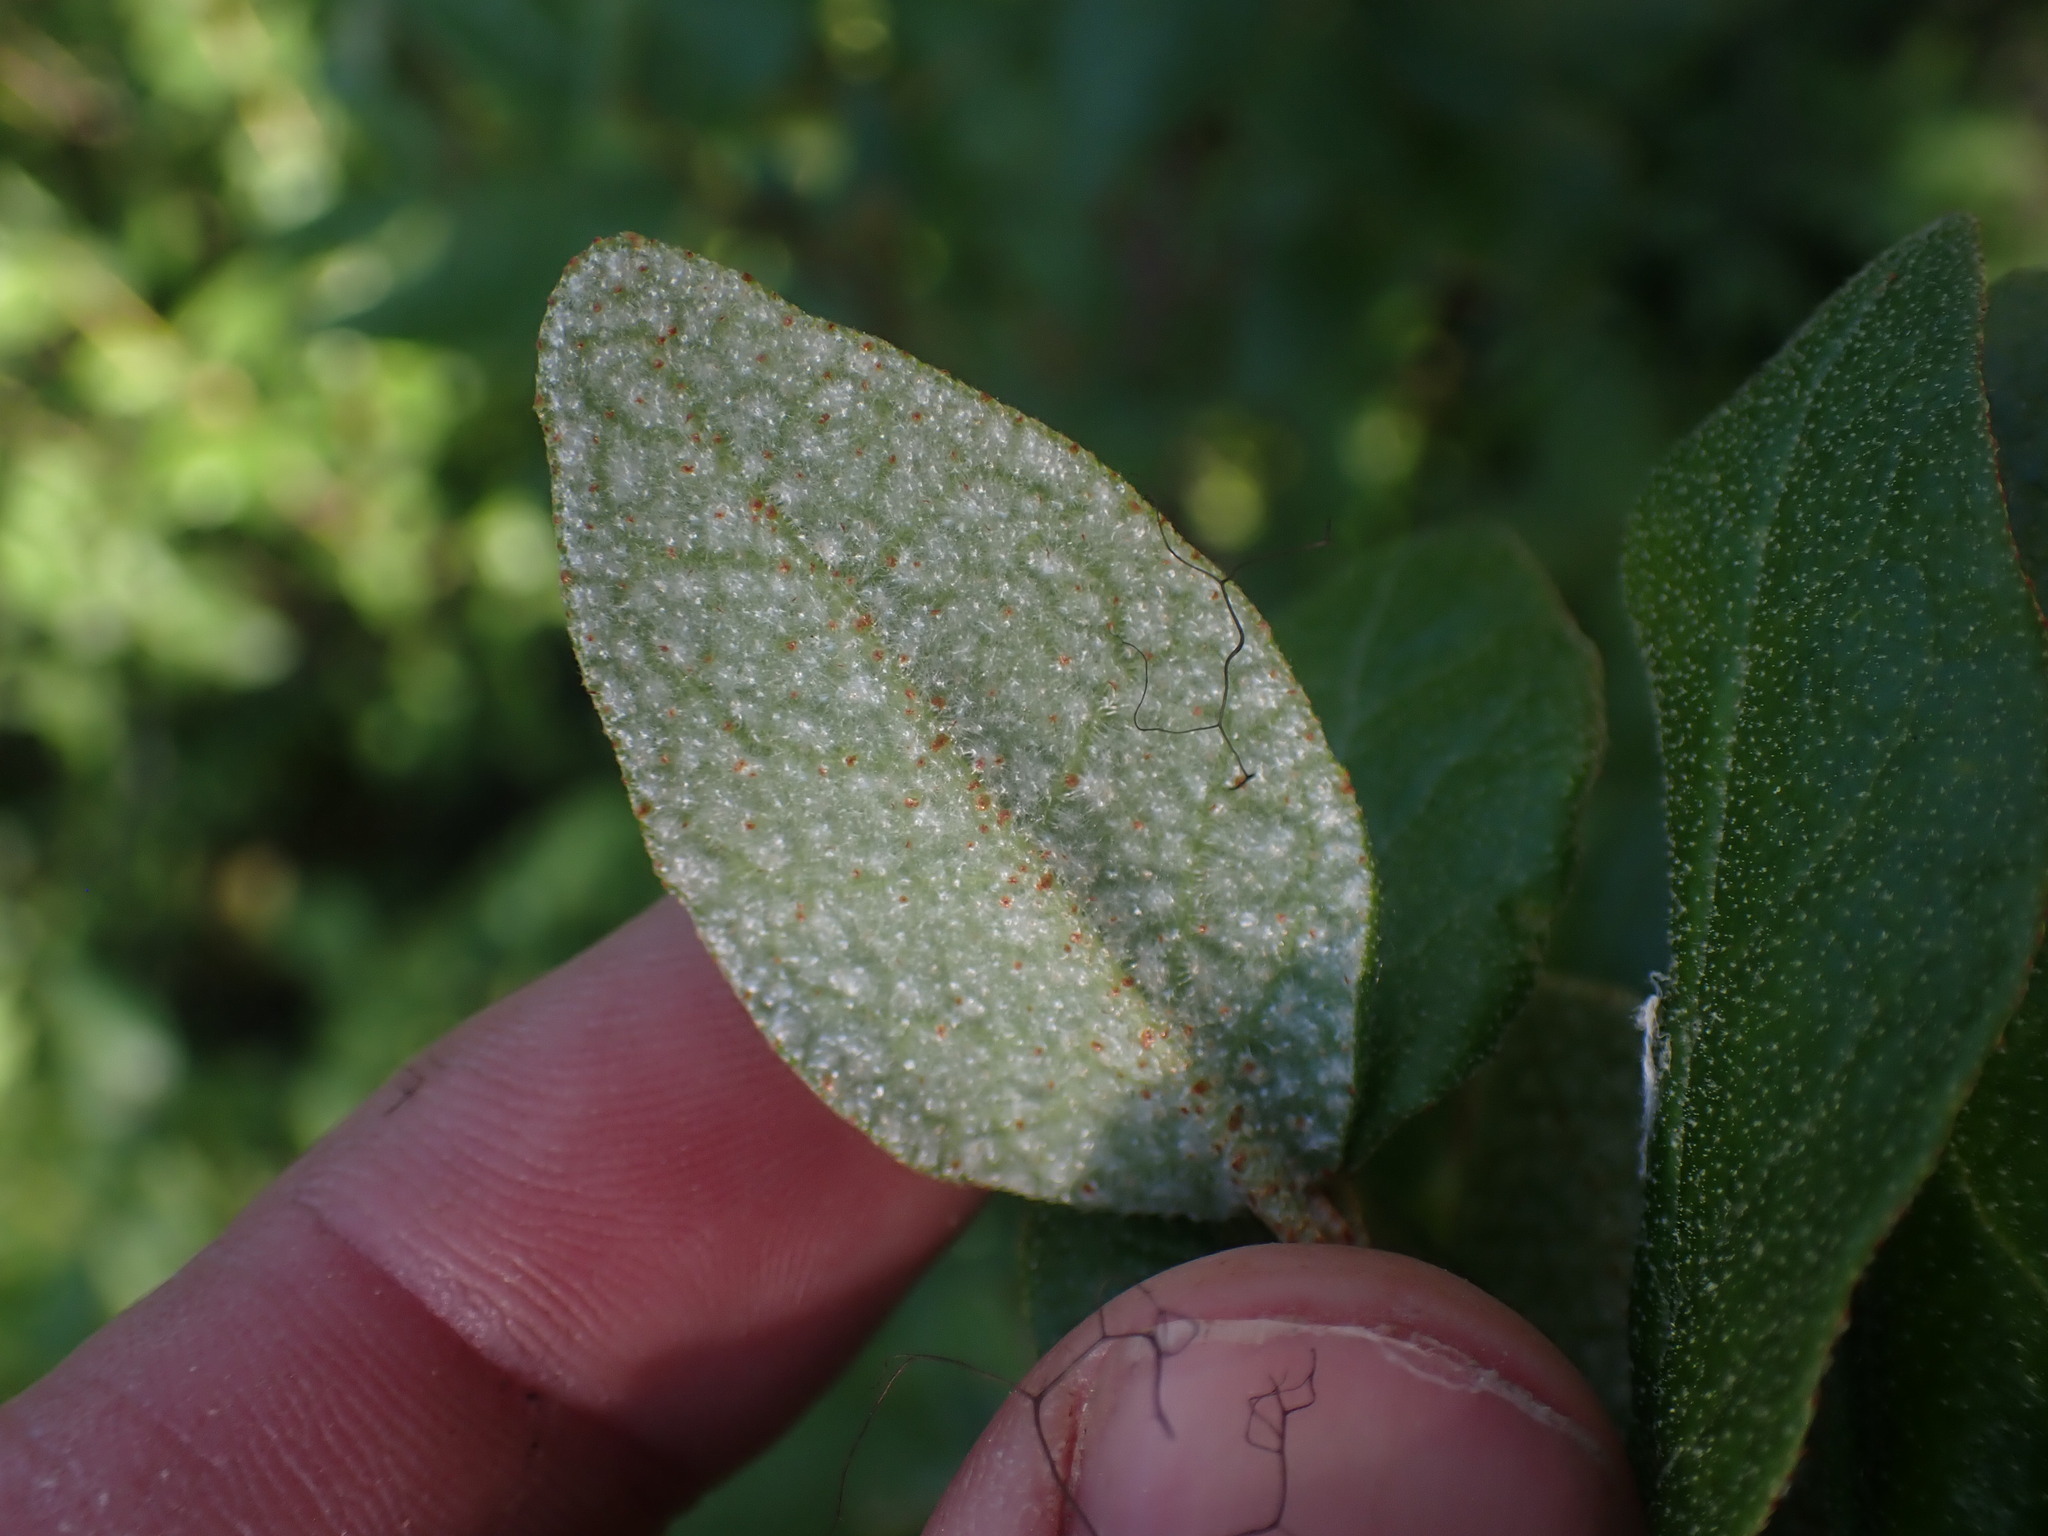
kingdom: Plantae
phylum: Tracheophyta
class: Magnoliopsida
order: Rosales
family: Elaeagnaceae
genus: Shepherdia
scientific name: Shepherdia canadensis
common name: Soapberry
